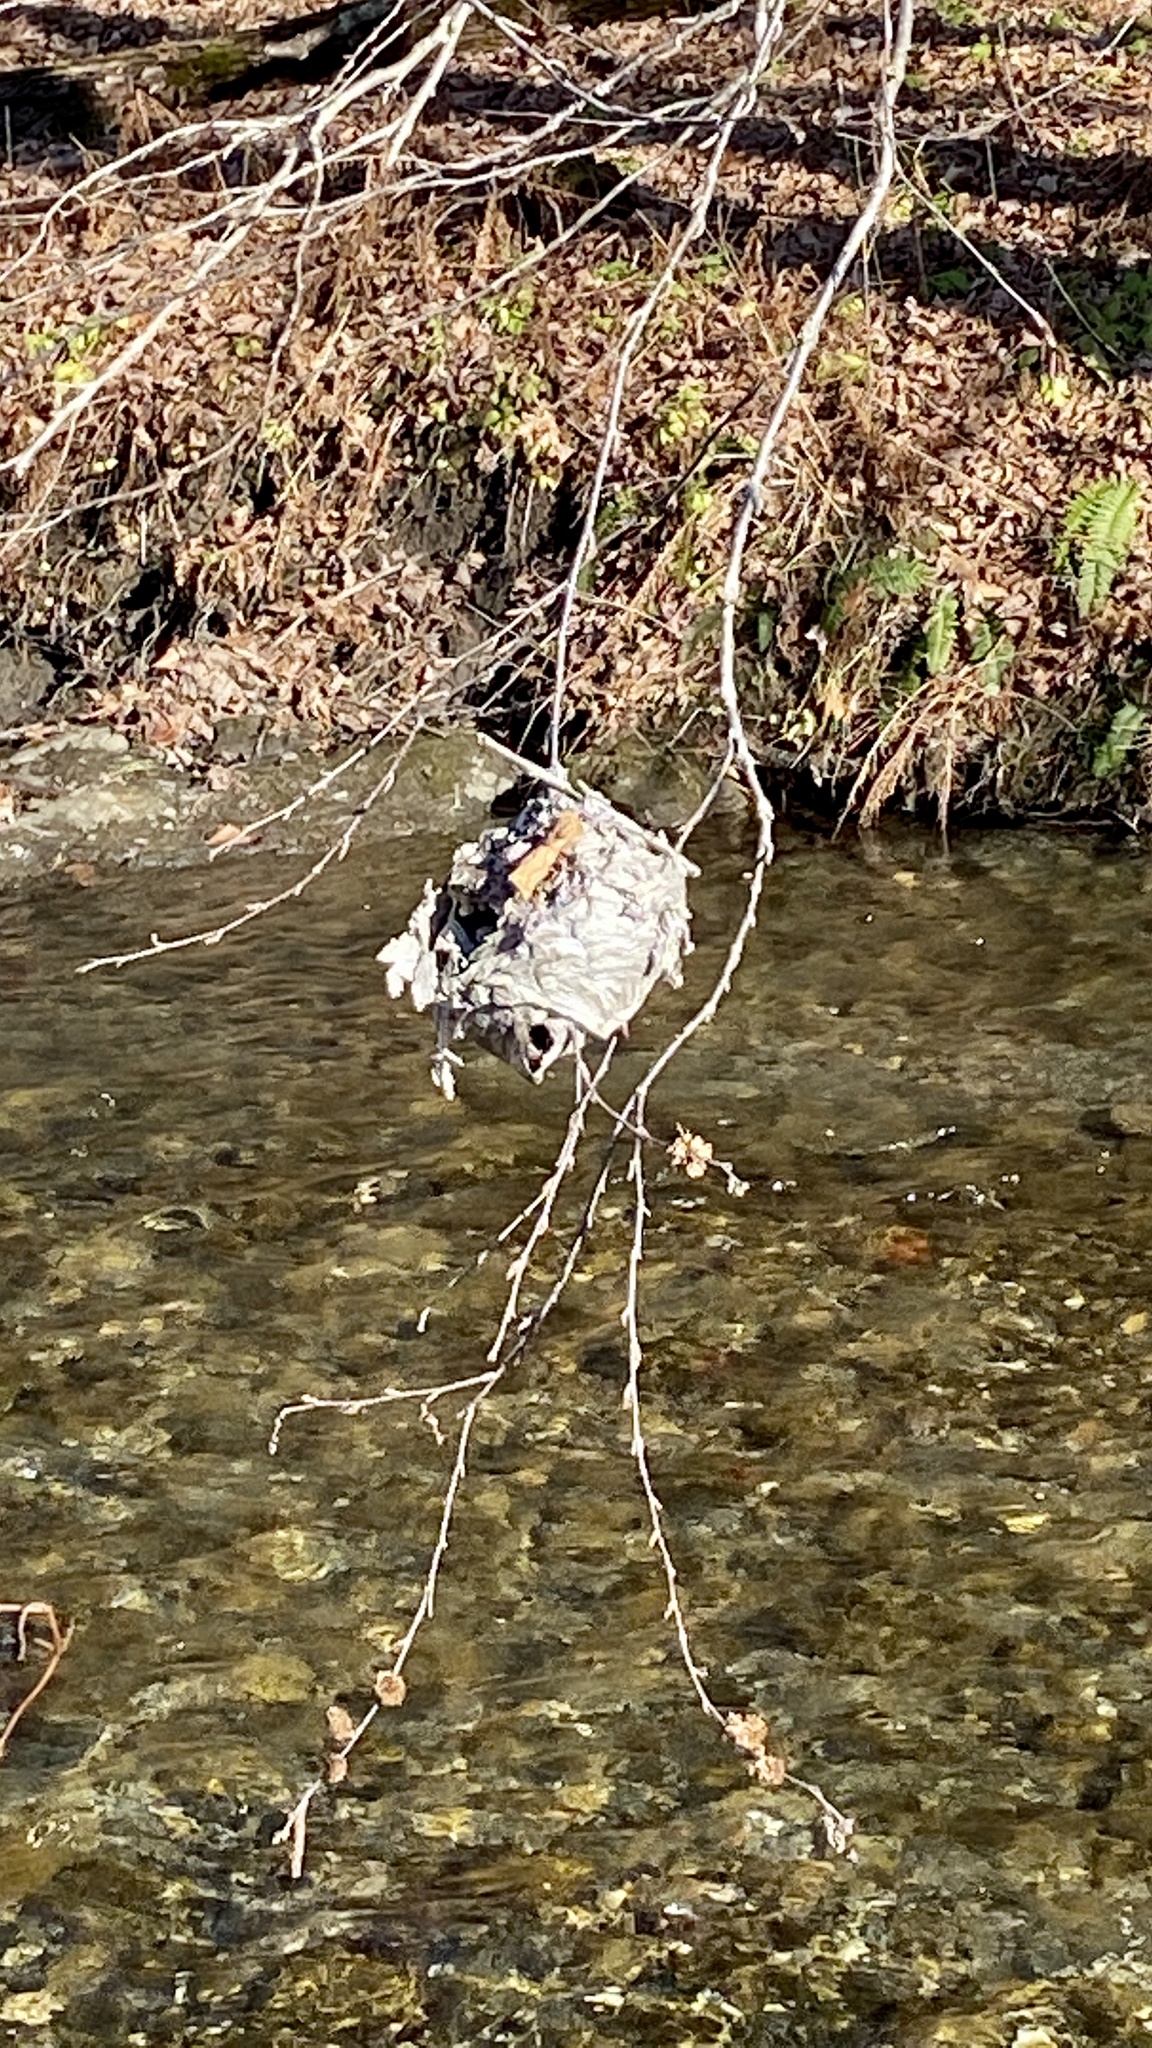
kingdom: Animalia
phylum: Arthropoda
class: Insecta
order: Hymenoptera
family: Vespidae
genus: Dolichovespula
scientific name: Dolichovespula maculata
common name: Bald-faced hornet
